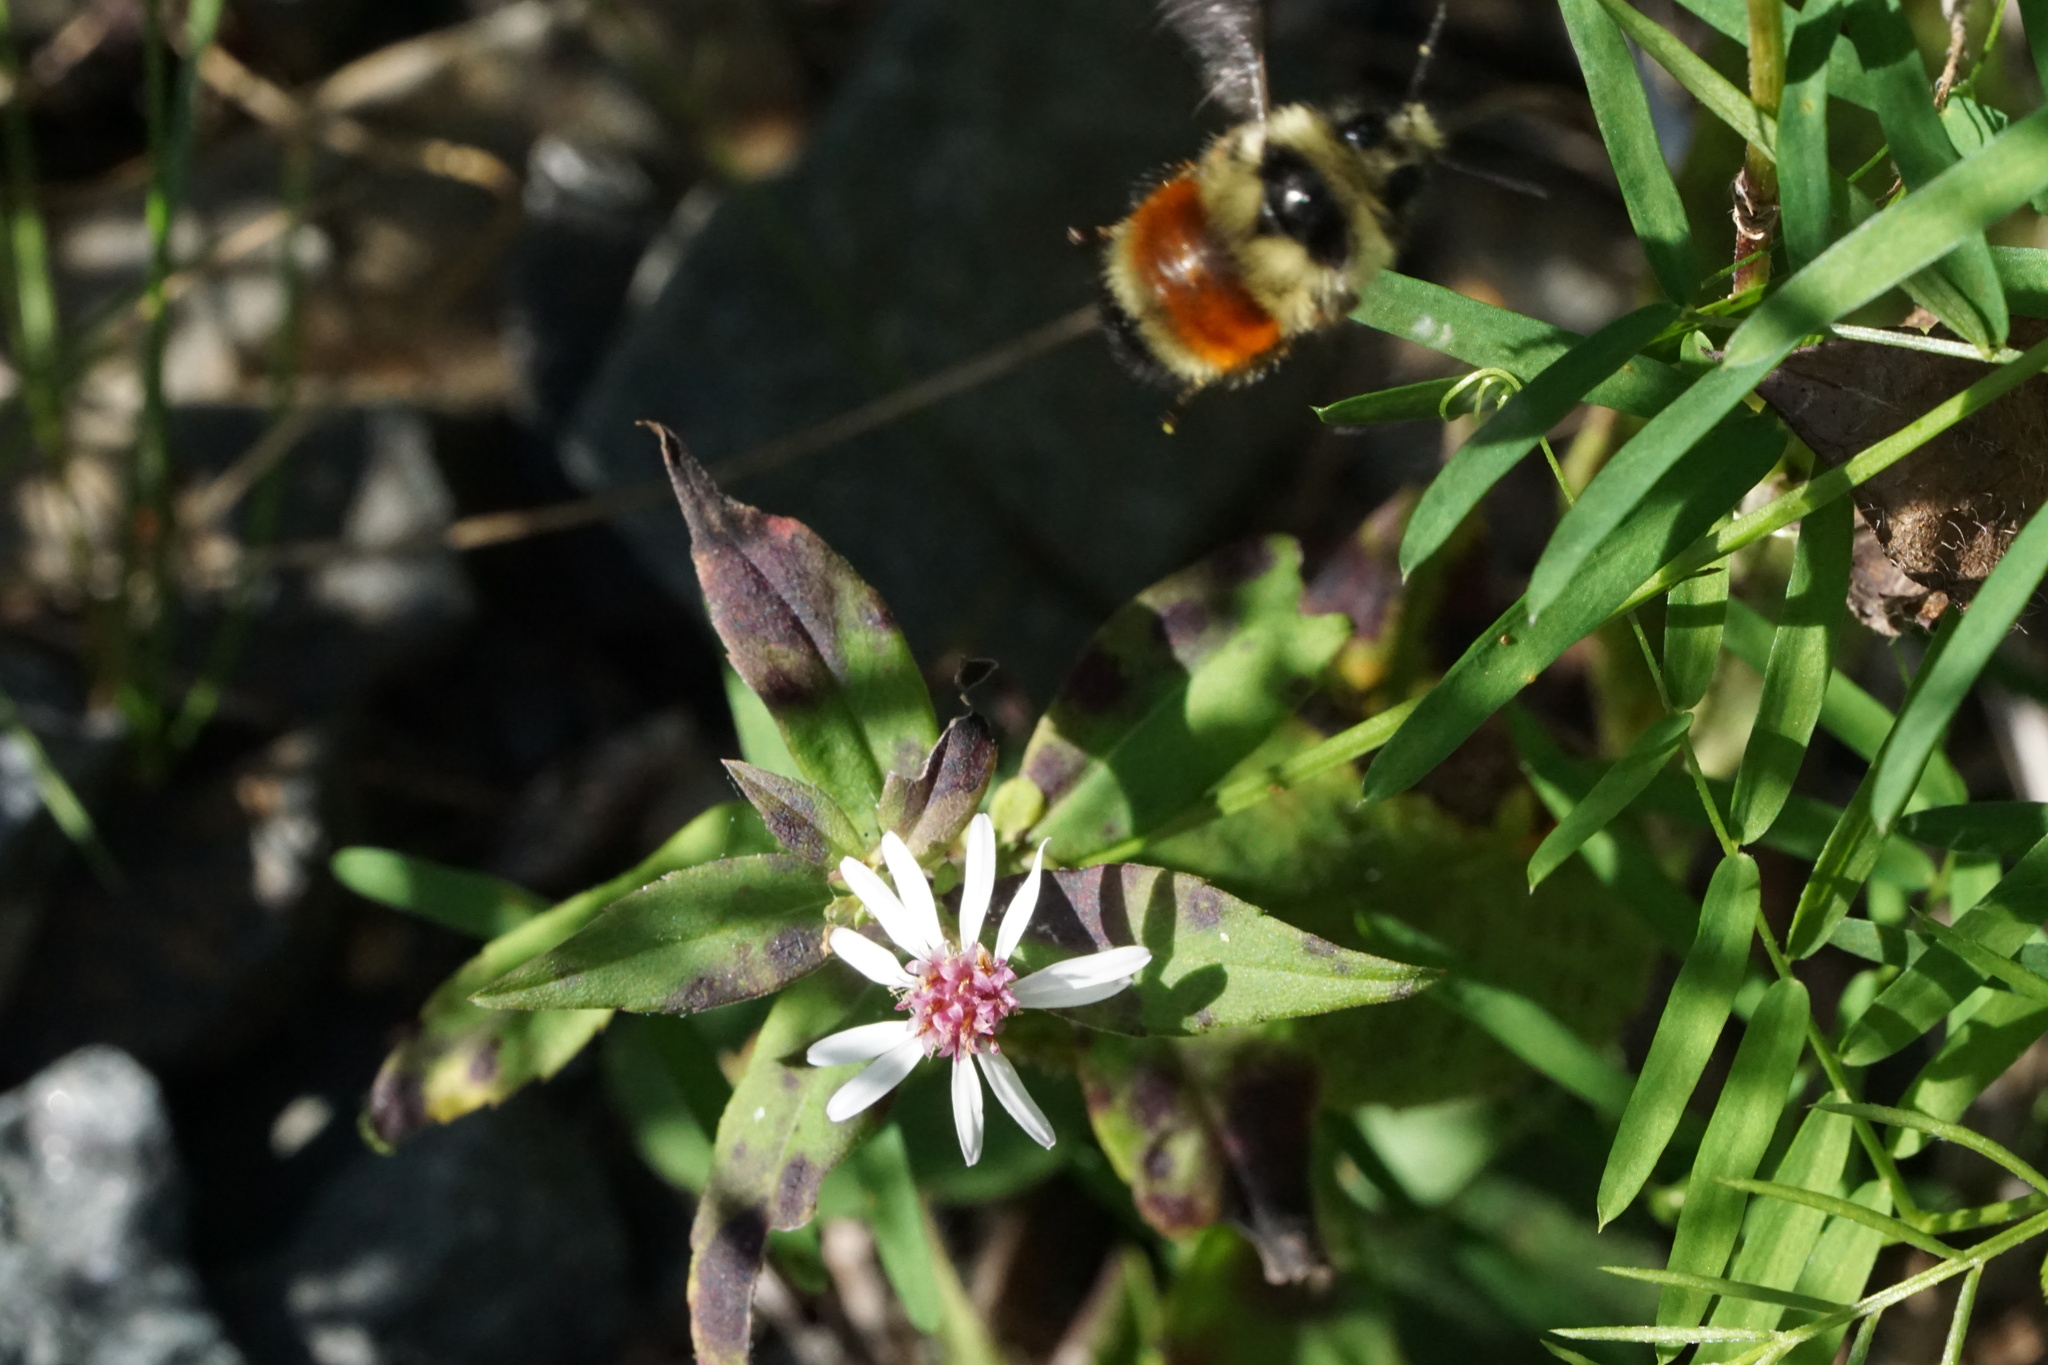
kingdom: Animalia
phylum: Arthropoda
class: Insecta
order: Hymenoptera
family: Apidae
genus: Bombus
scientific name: Bombus ternarius
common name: Tri-colored bumble bee
